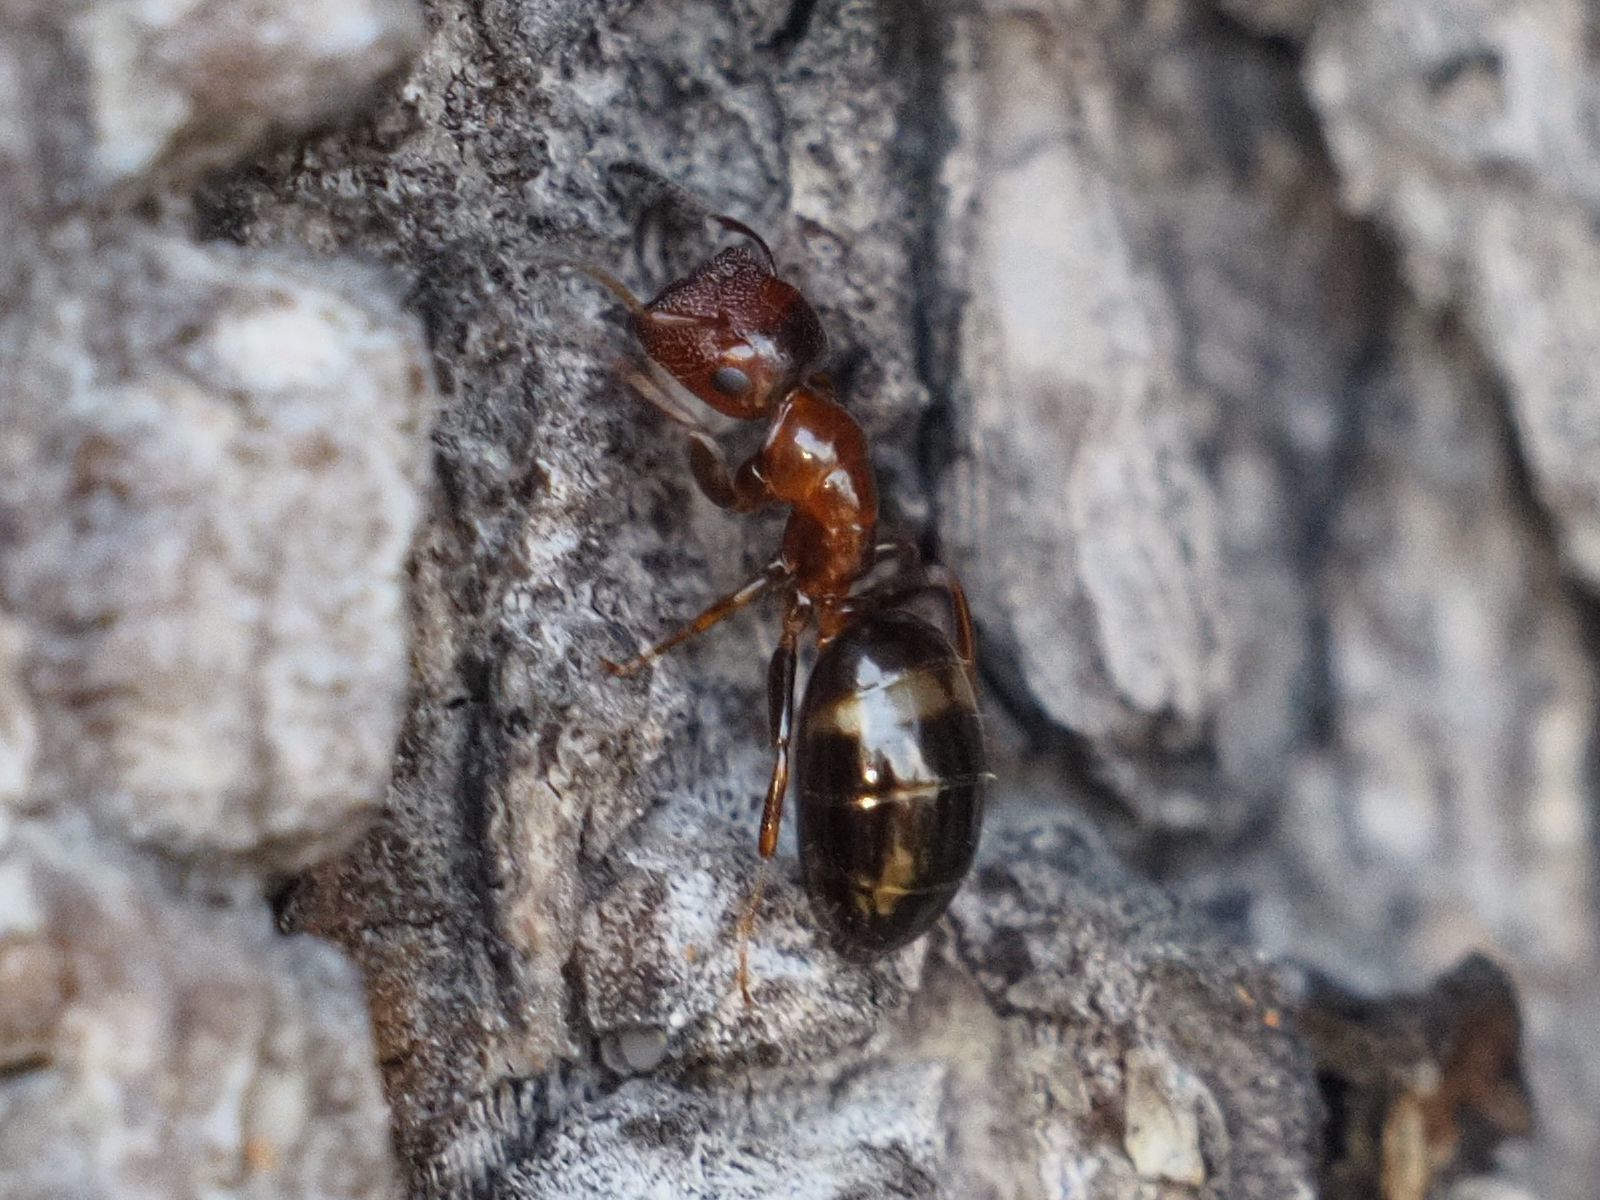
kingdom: Animalia
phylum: Arthropoda
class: Insecta
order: Hymenoptera
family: Formicidae
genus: Camponotus
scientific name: Camponotus truncatus
